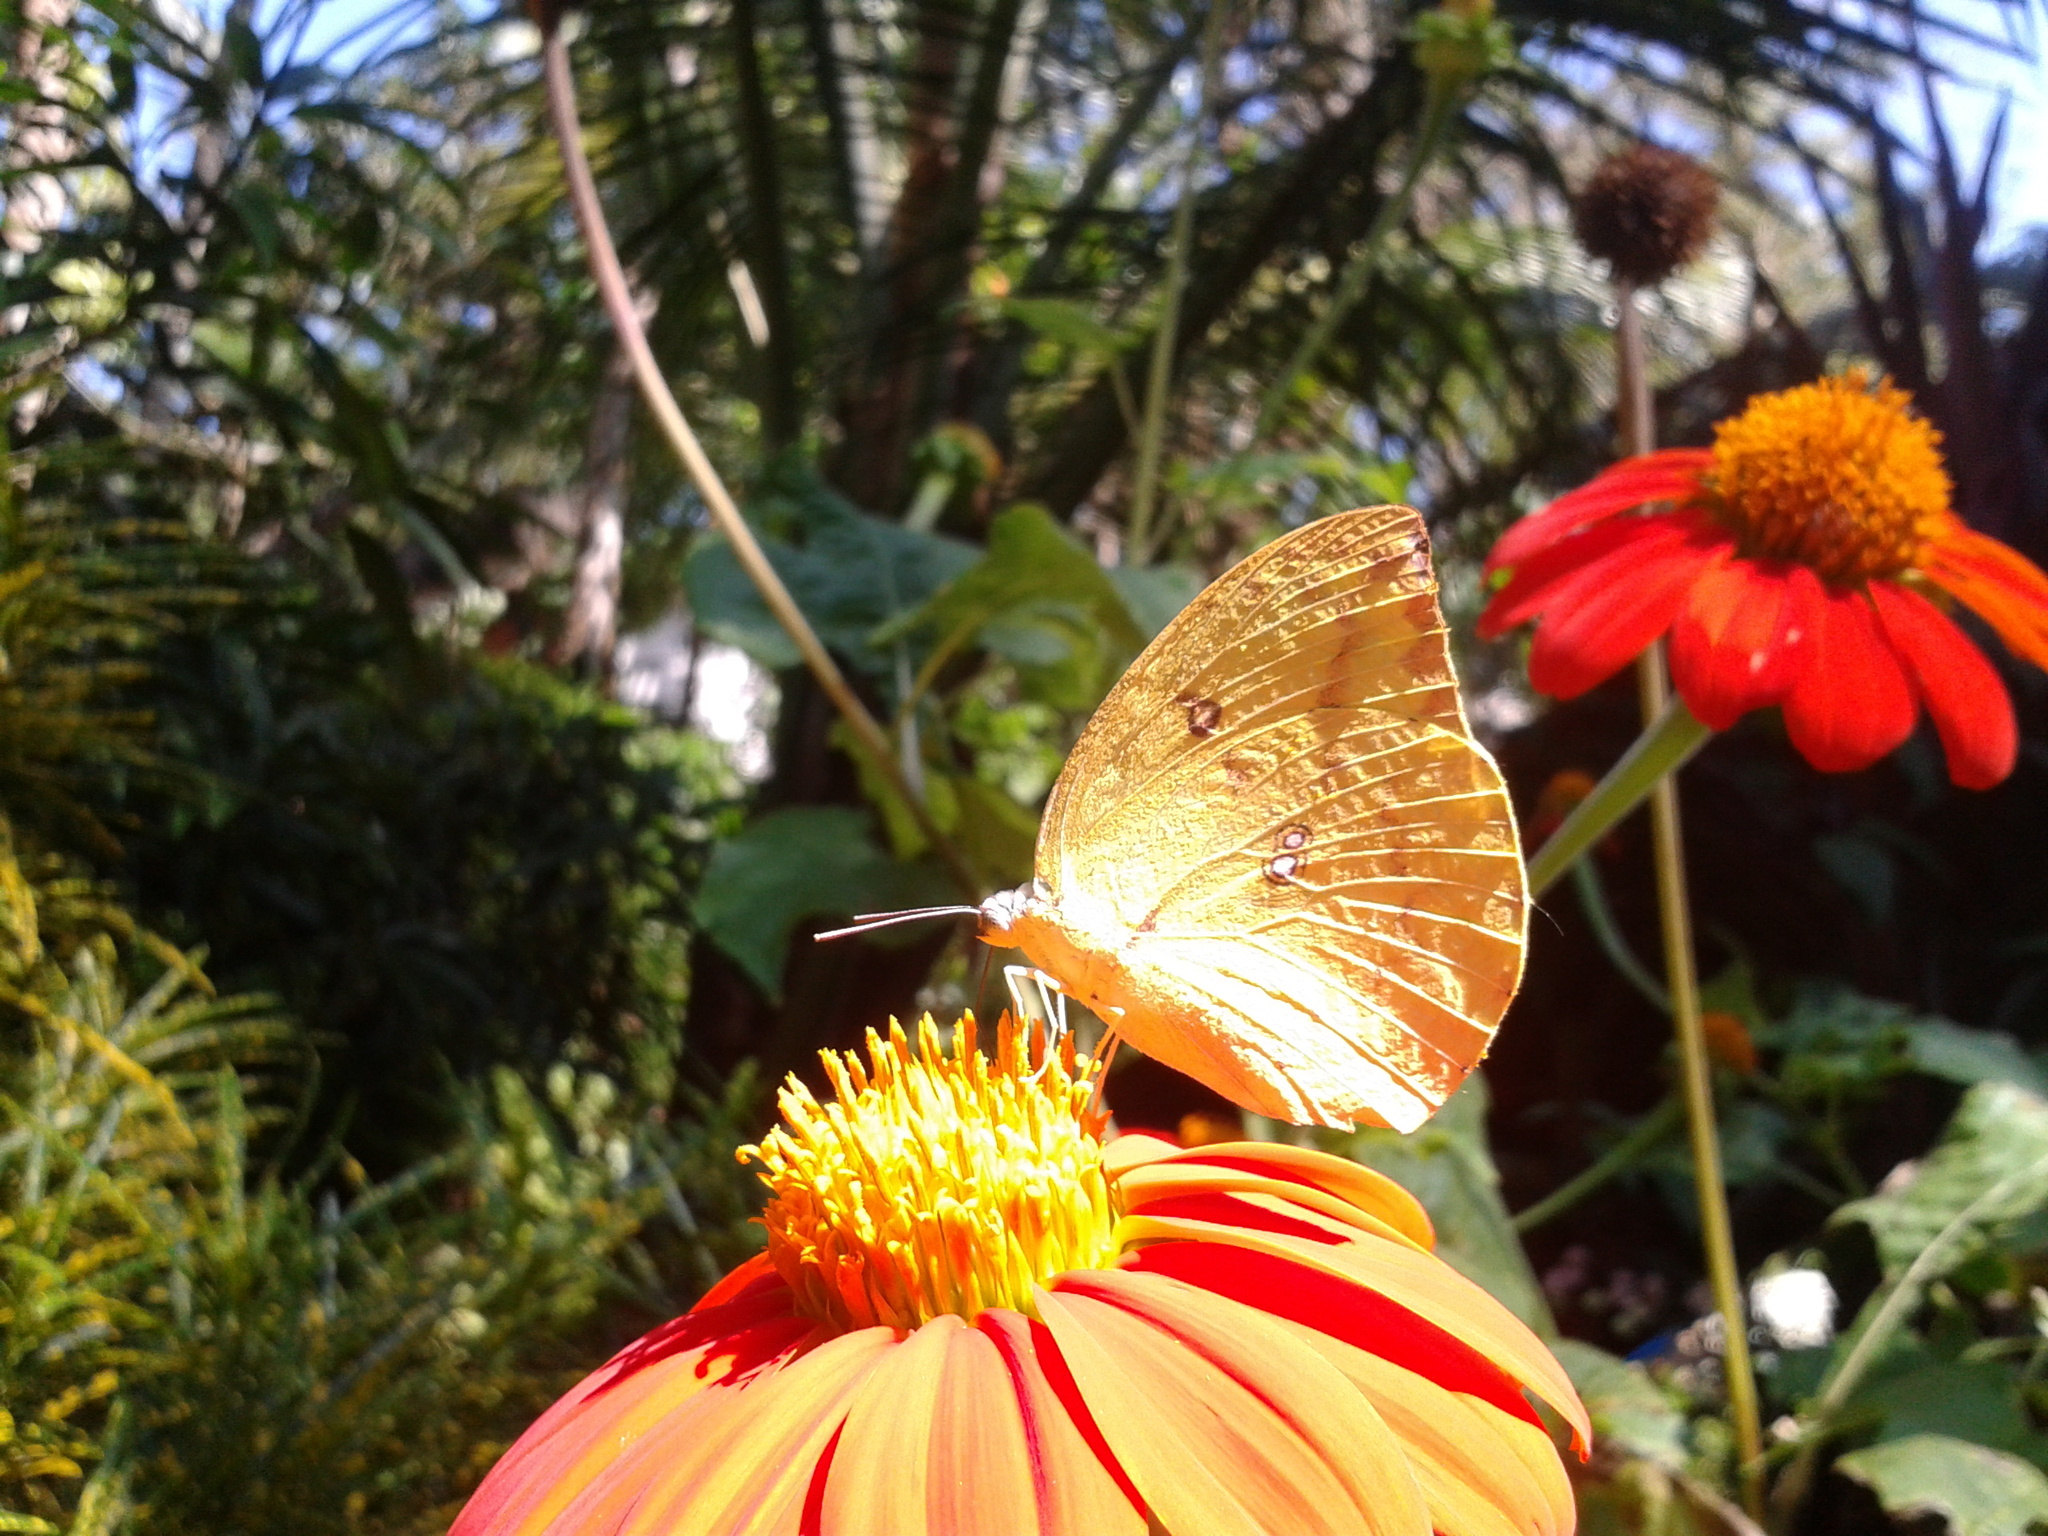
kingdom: Animalia
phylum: Arthropoda
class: Insecta
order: Lepidoptera
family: Pieridae
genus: Catopsilia
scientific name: Catopsilia pomona
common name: Common emigrant
